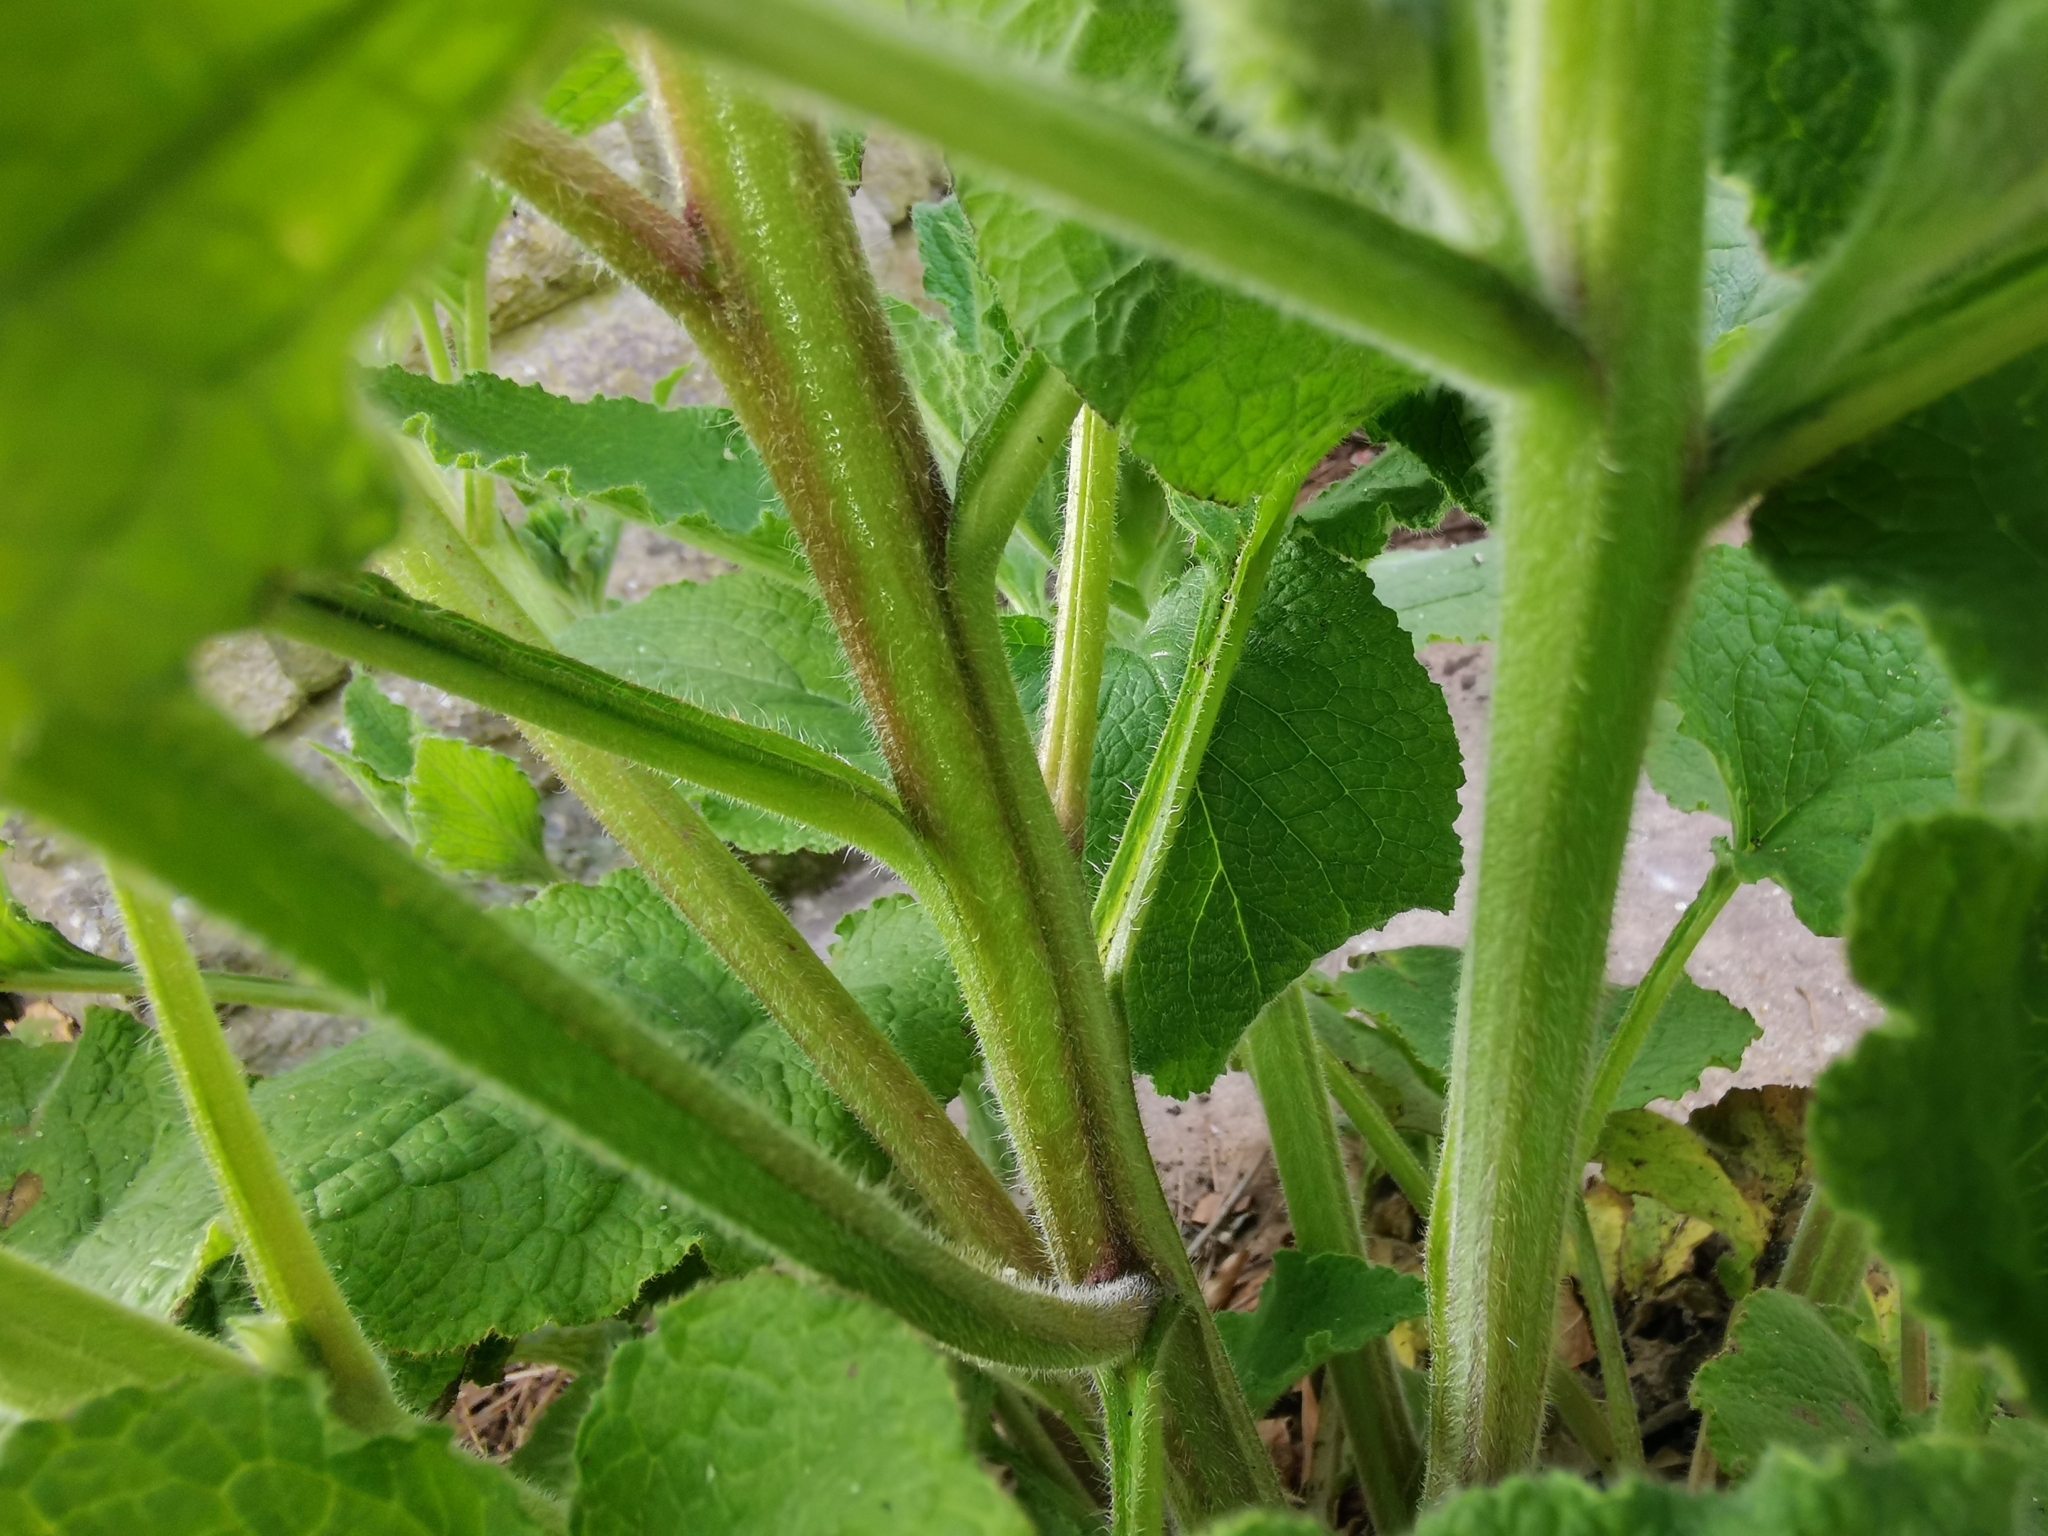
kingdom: Plantae
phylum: Tracheophyta
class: Magnoliopsida
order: Boraginales
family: Boraginaceae
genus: Symphytum
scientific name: Symphytum orientale
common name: White comfrey
